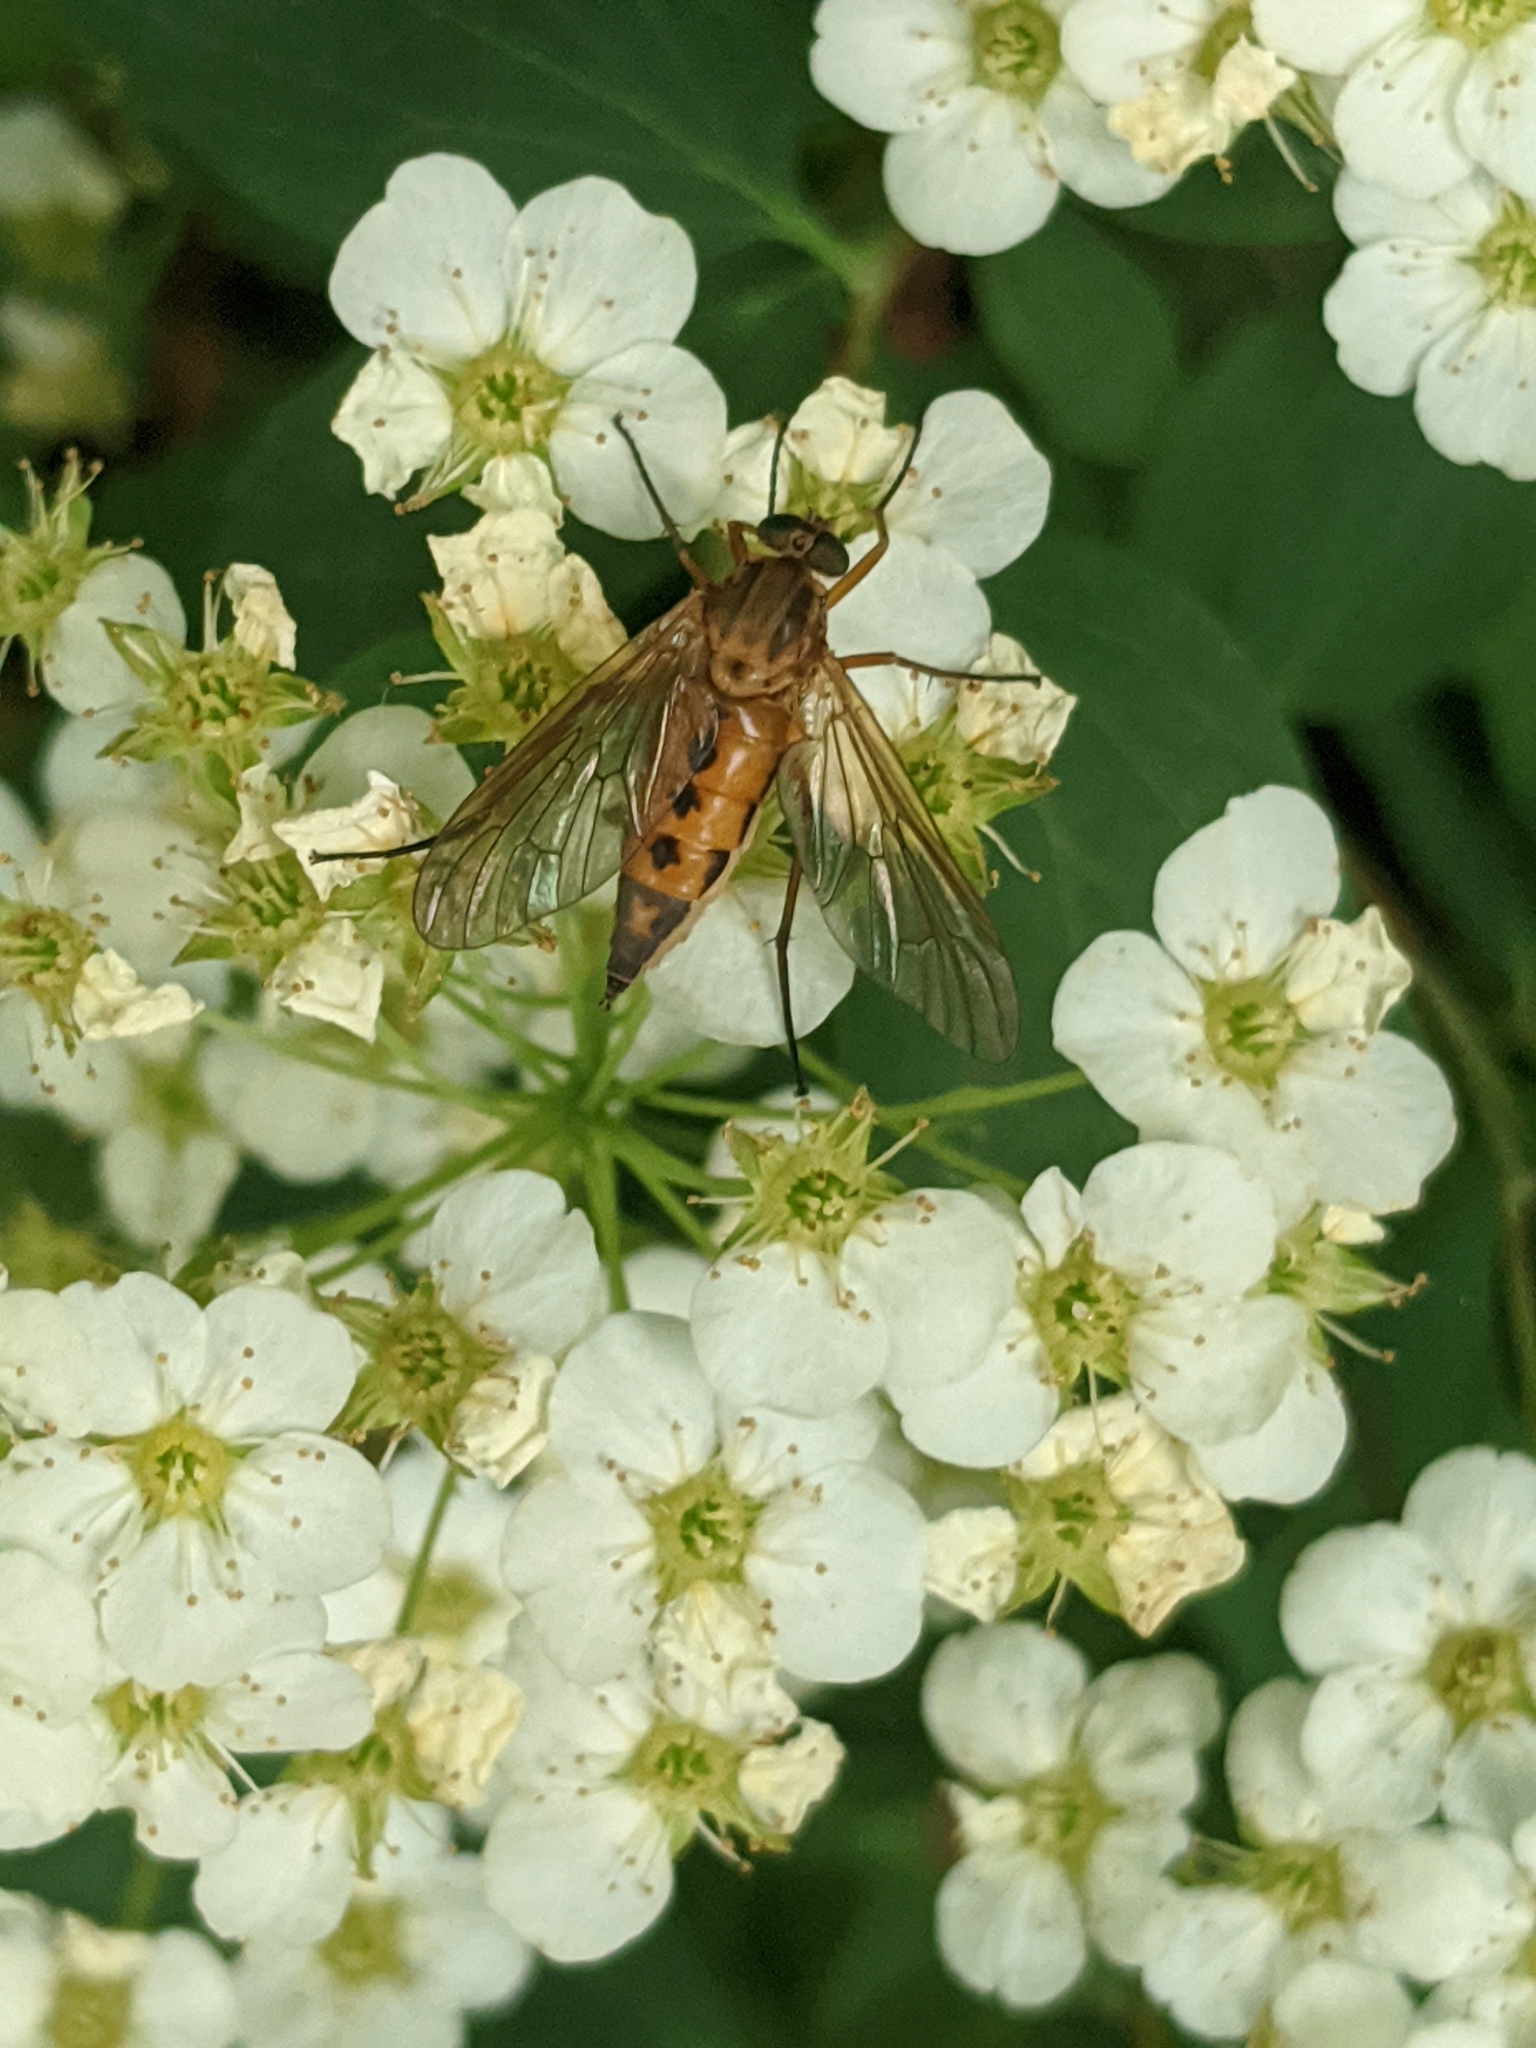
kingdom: Animalia
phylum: Arthropoda
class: Insecta
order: Diptera
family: Rhagionidae
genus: Rhagio
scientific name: Rhagio tringaria
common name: Marsh snipefly
